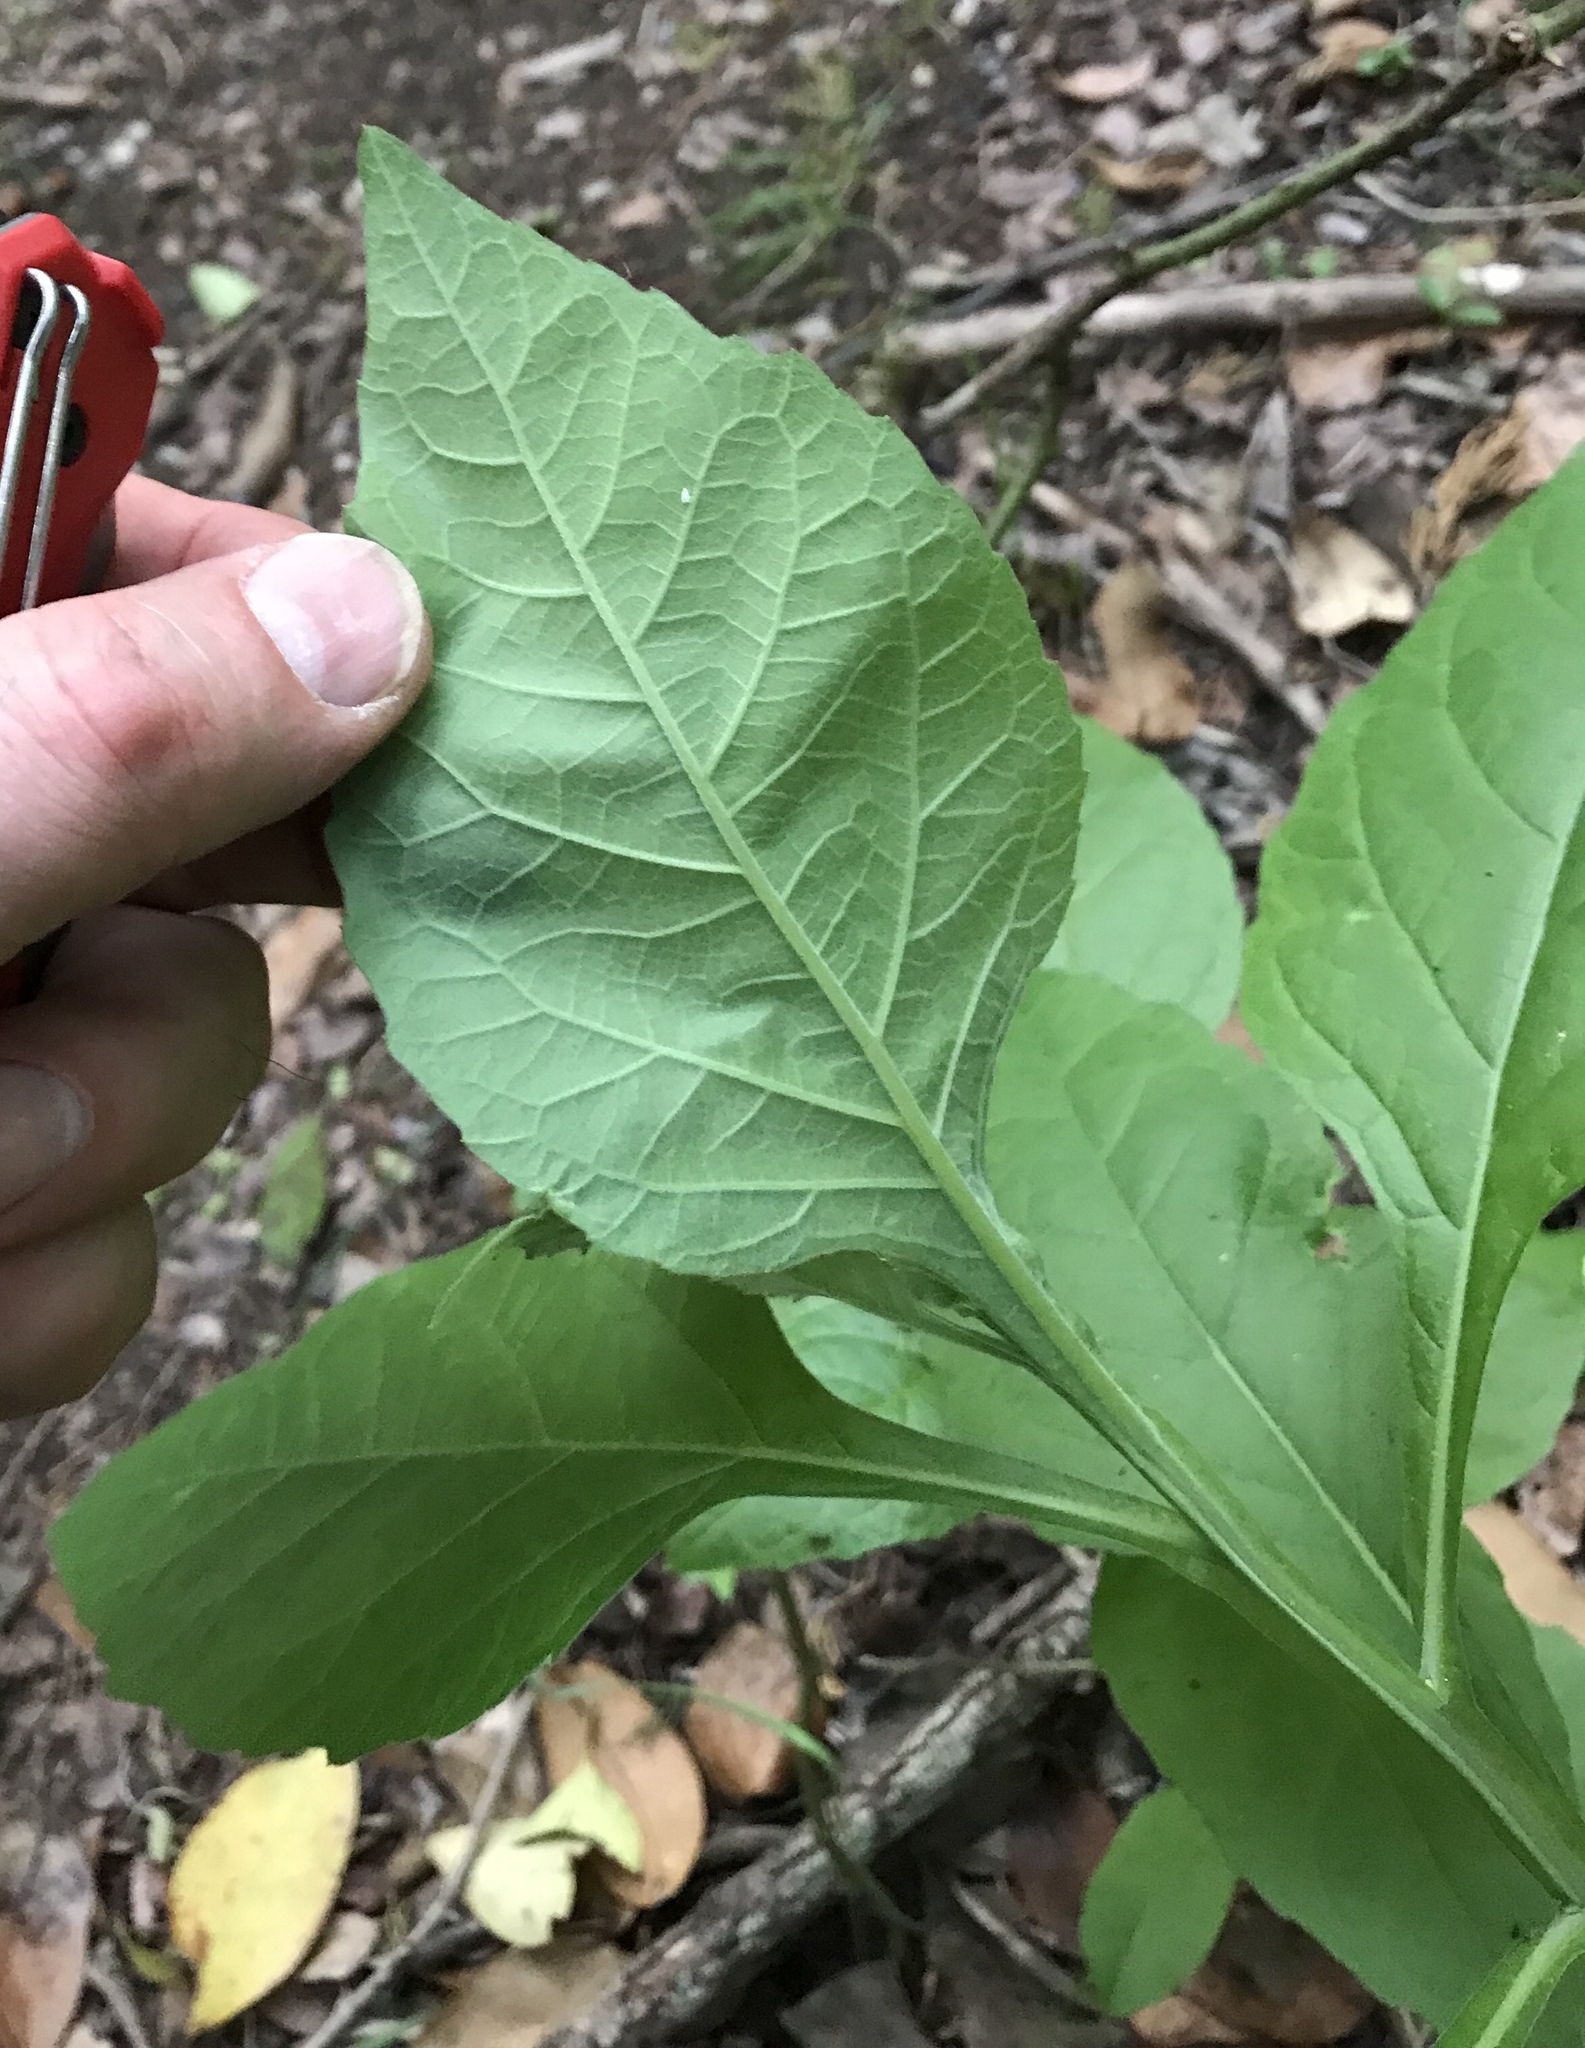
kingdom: Plantae
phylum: Tracheophyta
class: Magnoliopsida
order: Asterales
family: Asteraceae
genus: Verbesina
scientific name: Verbesina virginica
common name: Frostweed
